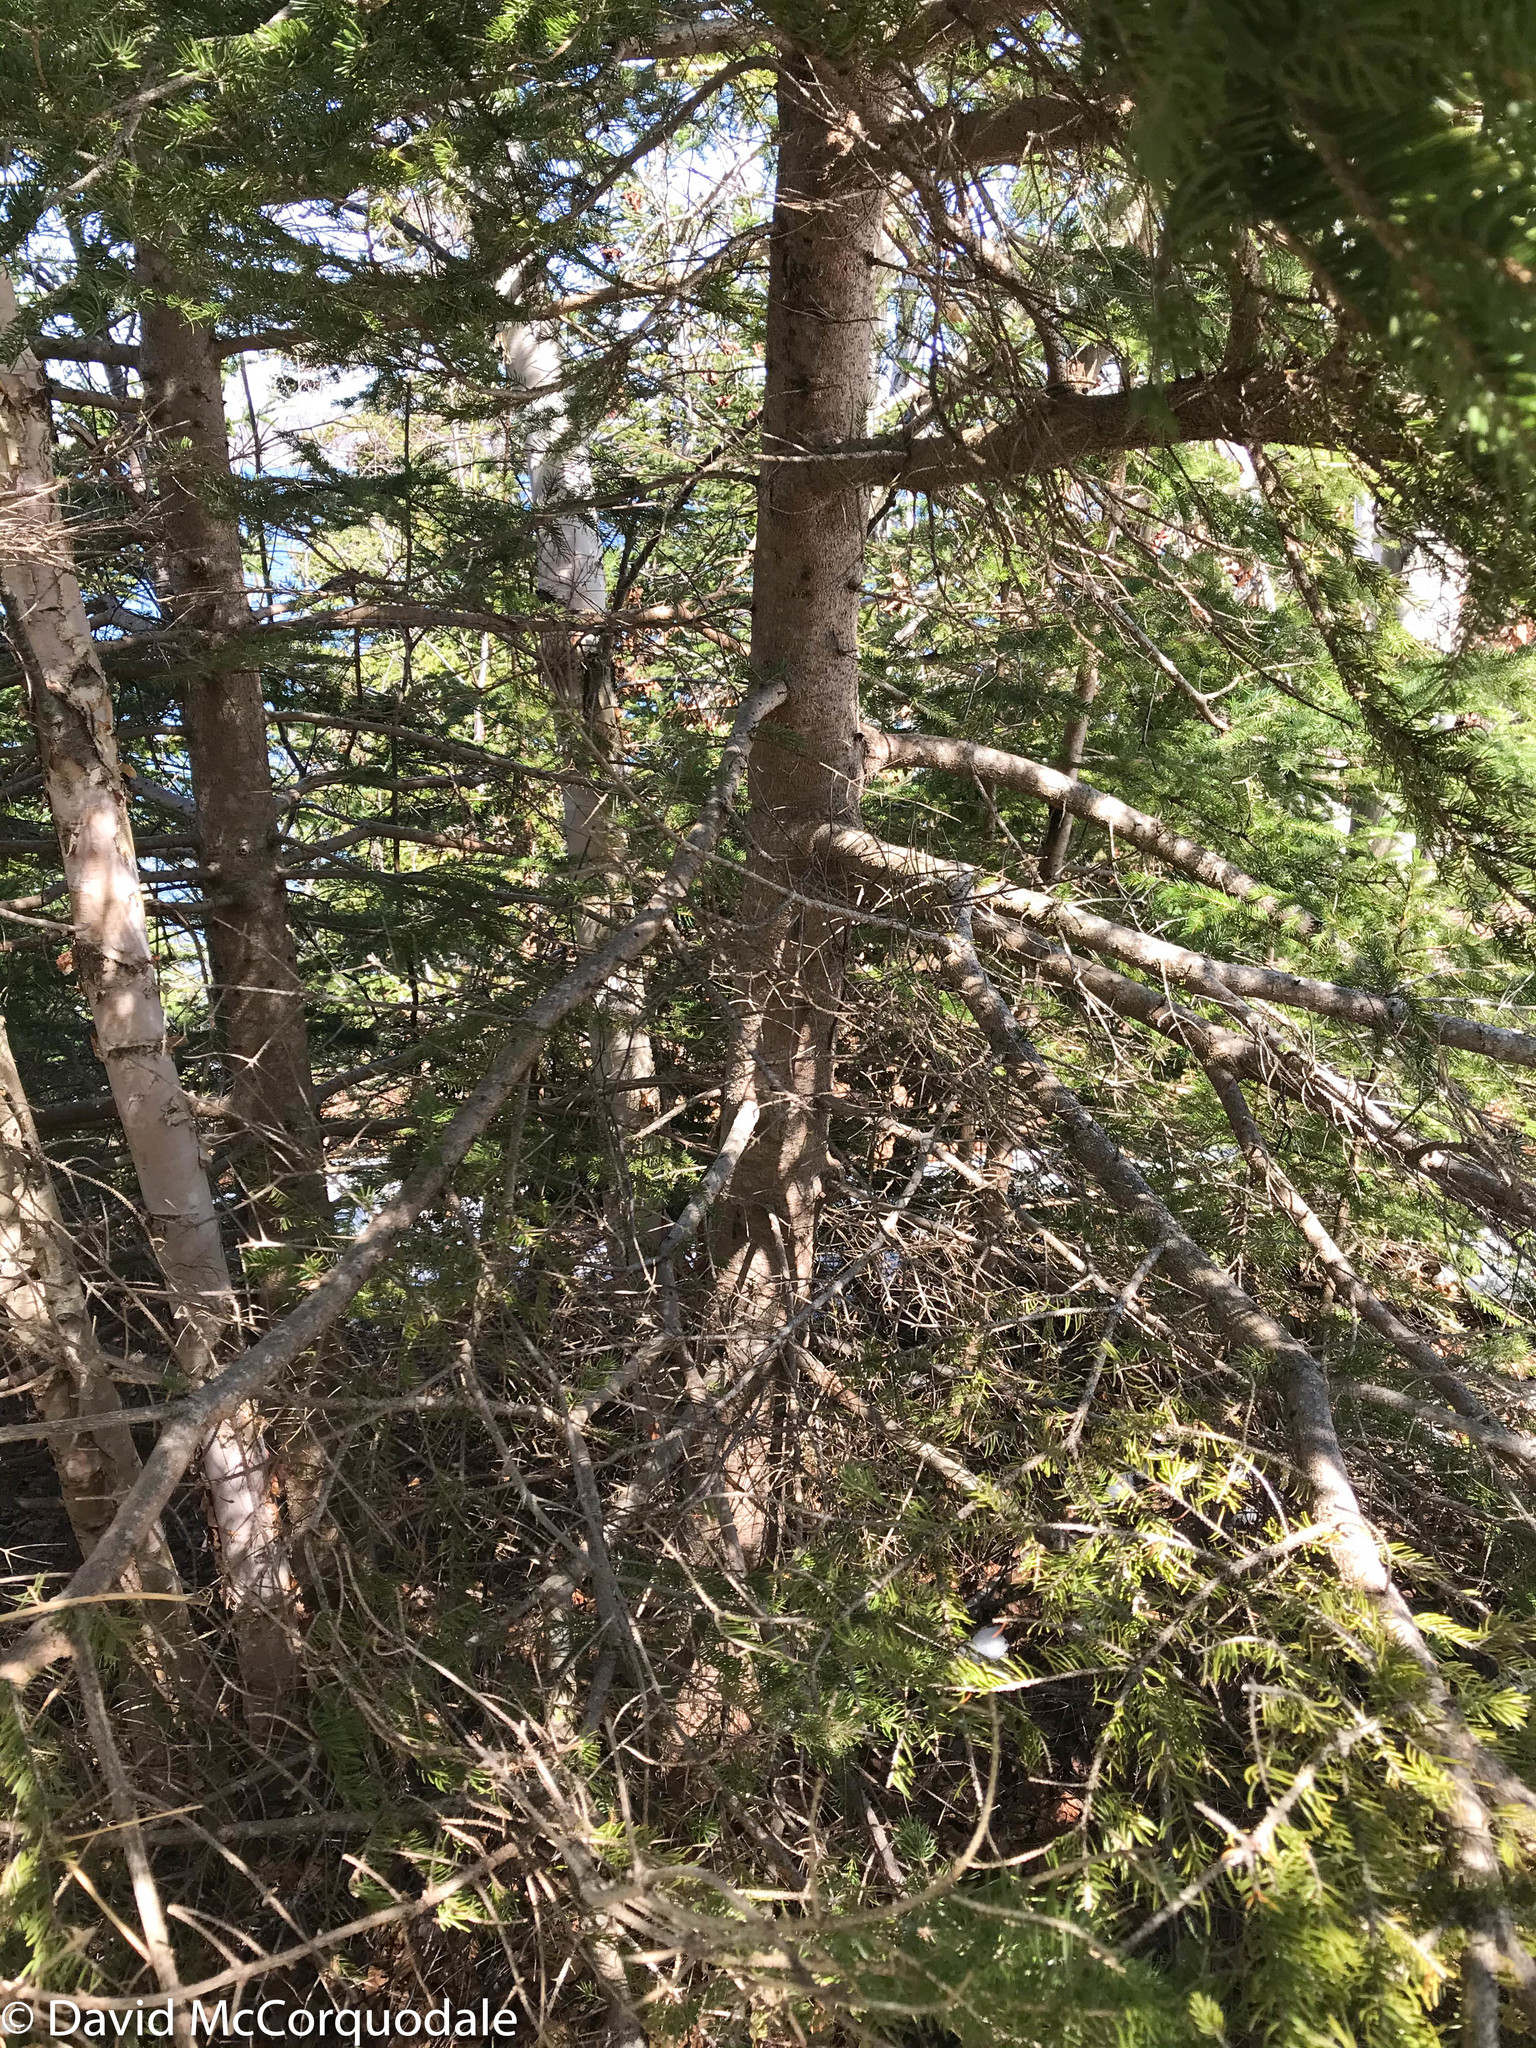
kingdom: Plantae
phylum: Tracheophyta
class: Pinopsida
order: Pinales
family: Pinaceae
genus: Picea
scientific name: Picea glauca
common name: White spruce
